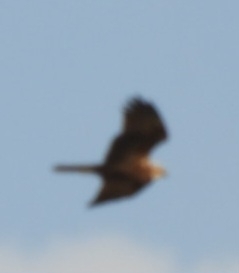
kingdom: Animalia
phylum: Chordata
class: Aves
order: Accipitriformes
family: Accipitridae
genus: Circus
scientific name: Circus aeruginosus
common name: Western marsh harrier
